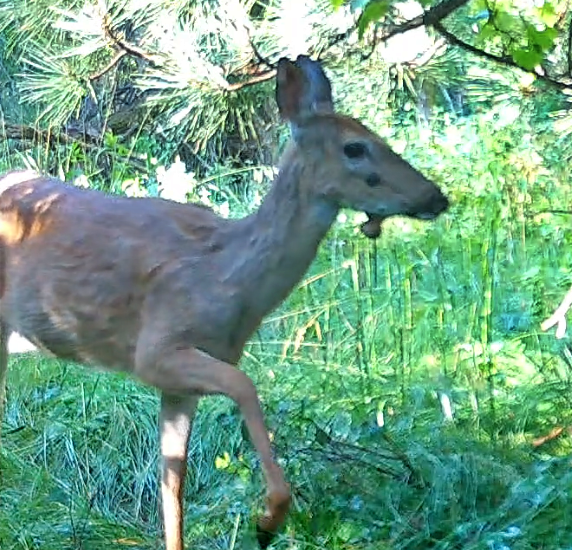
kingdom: Animalia
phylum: Chordata
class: Mammalia
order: Artiodactyla
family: Cervidae
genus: Odocoileus
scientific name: Odocoileus virginianus
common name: White-tailed deer
